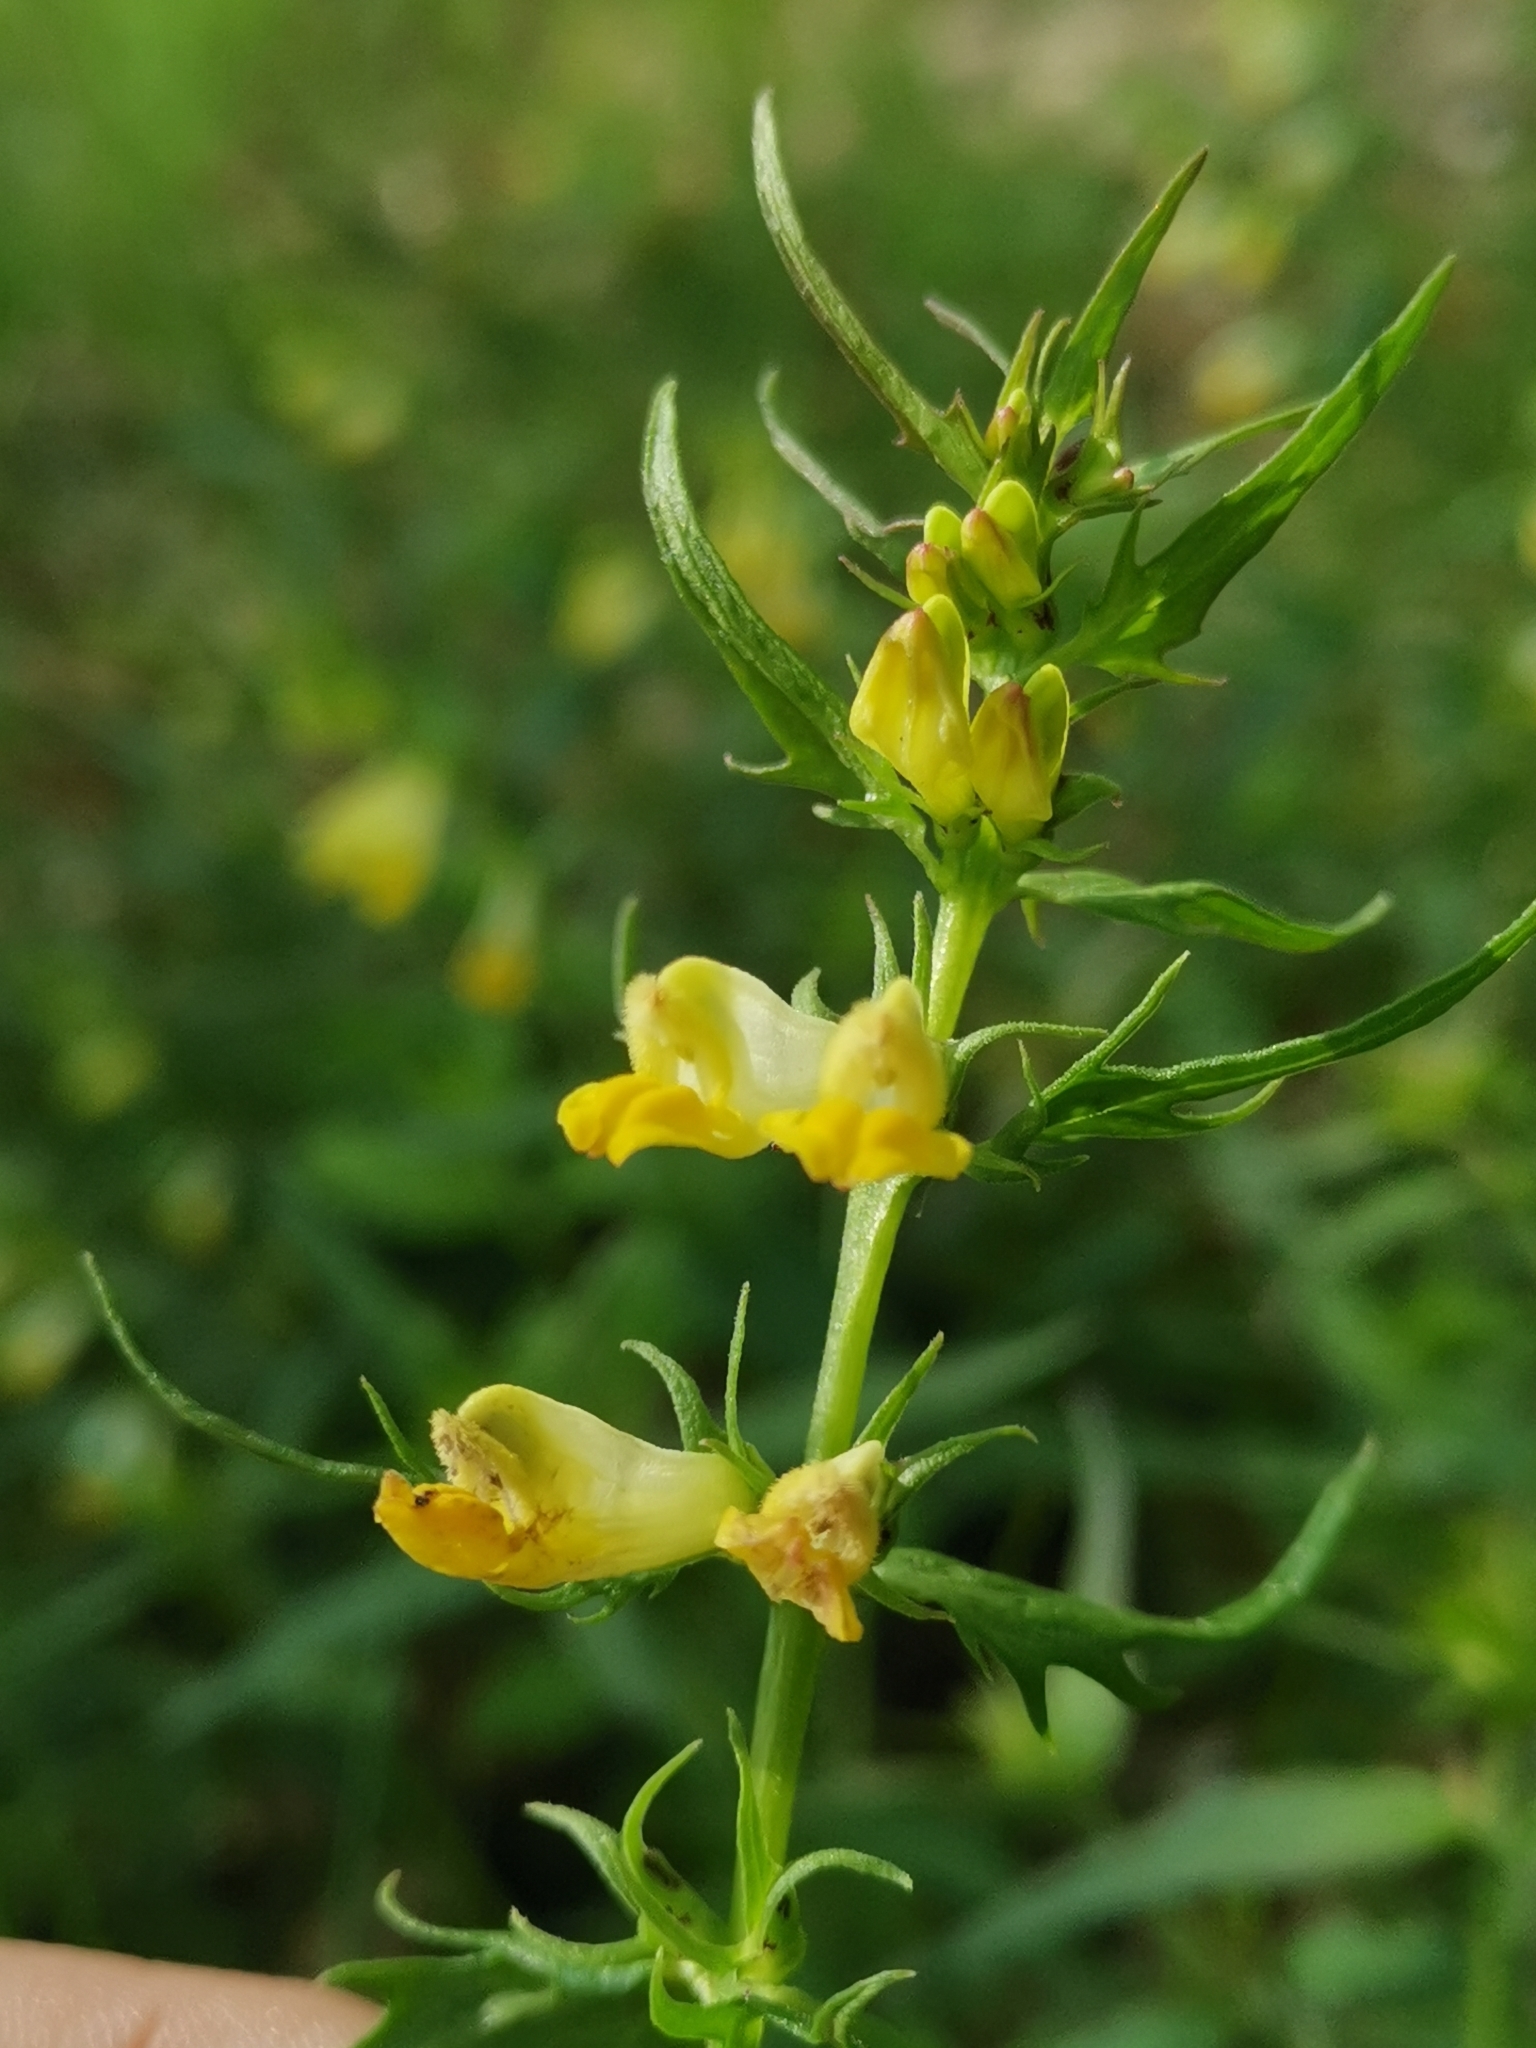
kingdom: Plantae
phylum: Tracheophyta
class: Magnoliopsida
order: Lamiales
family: Orobanchaceae
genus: Melampyrum
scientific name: Melampyrum pratense
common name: Common cow-wheat
